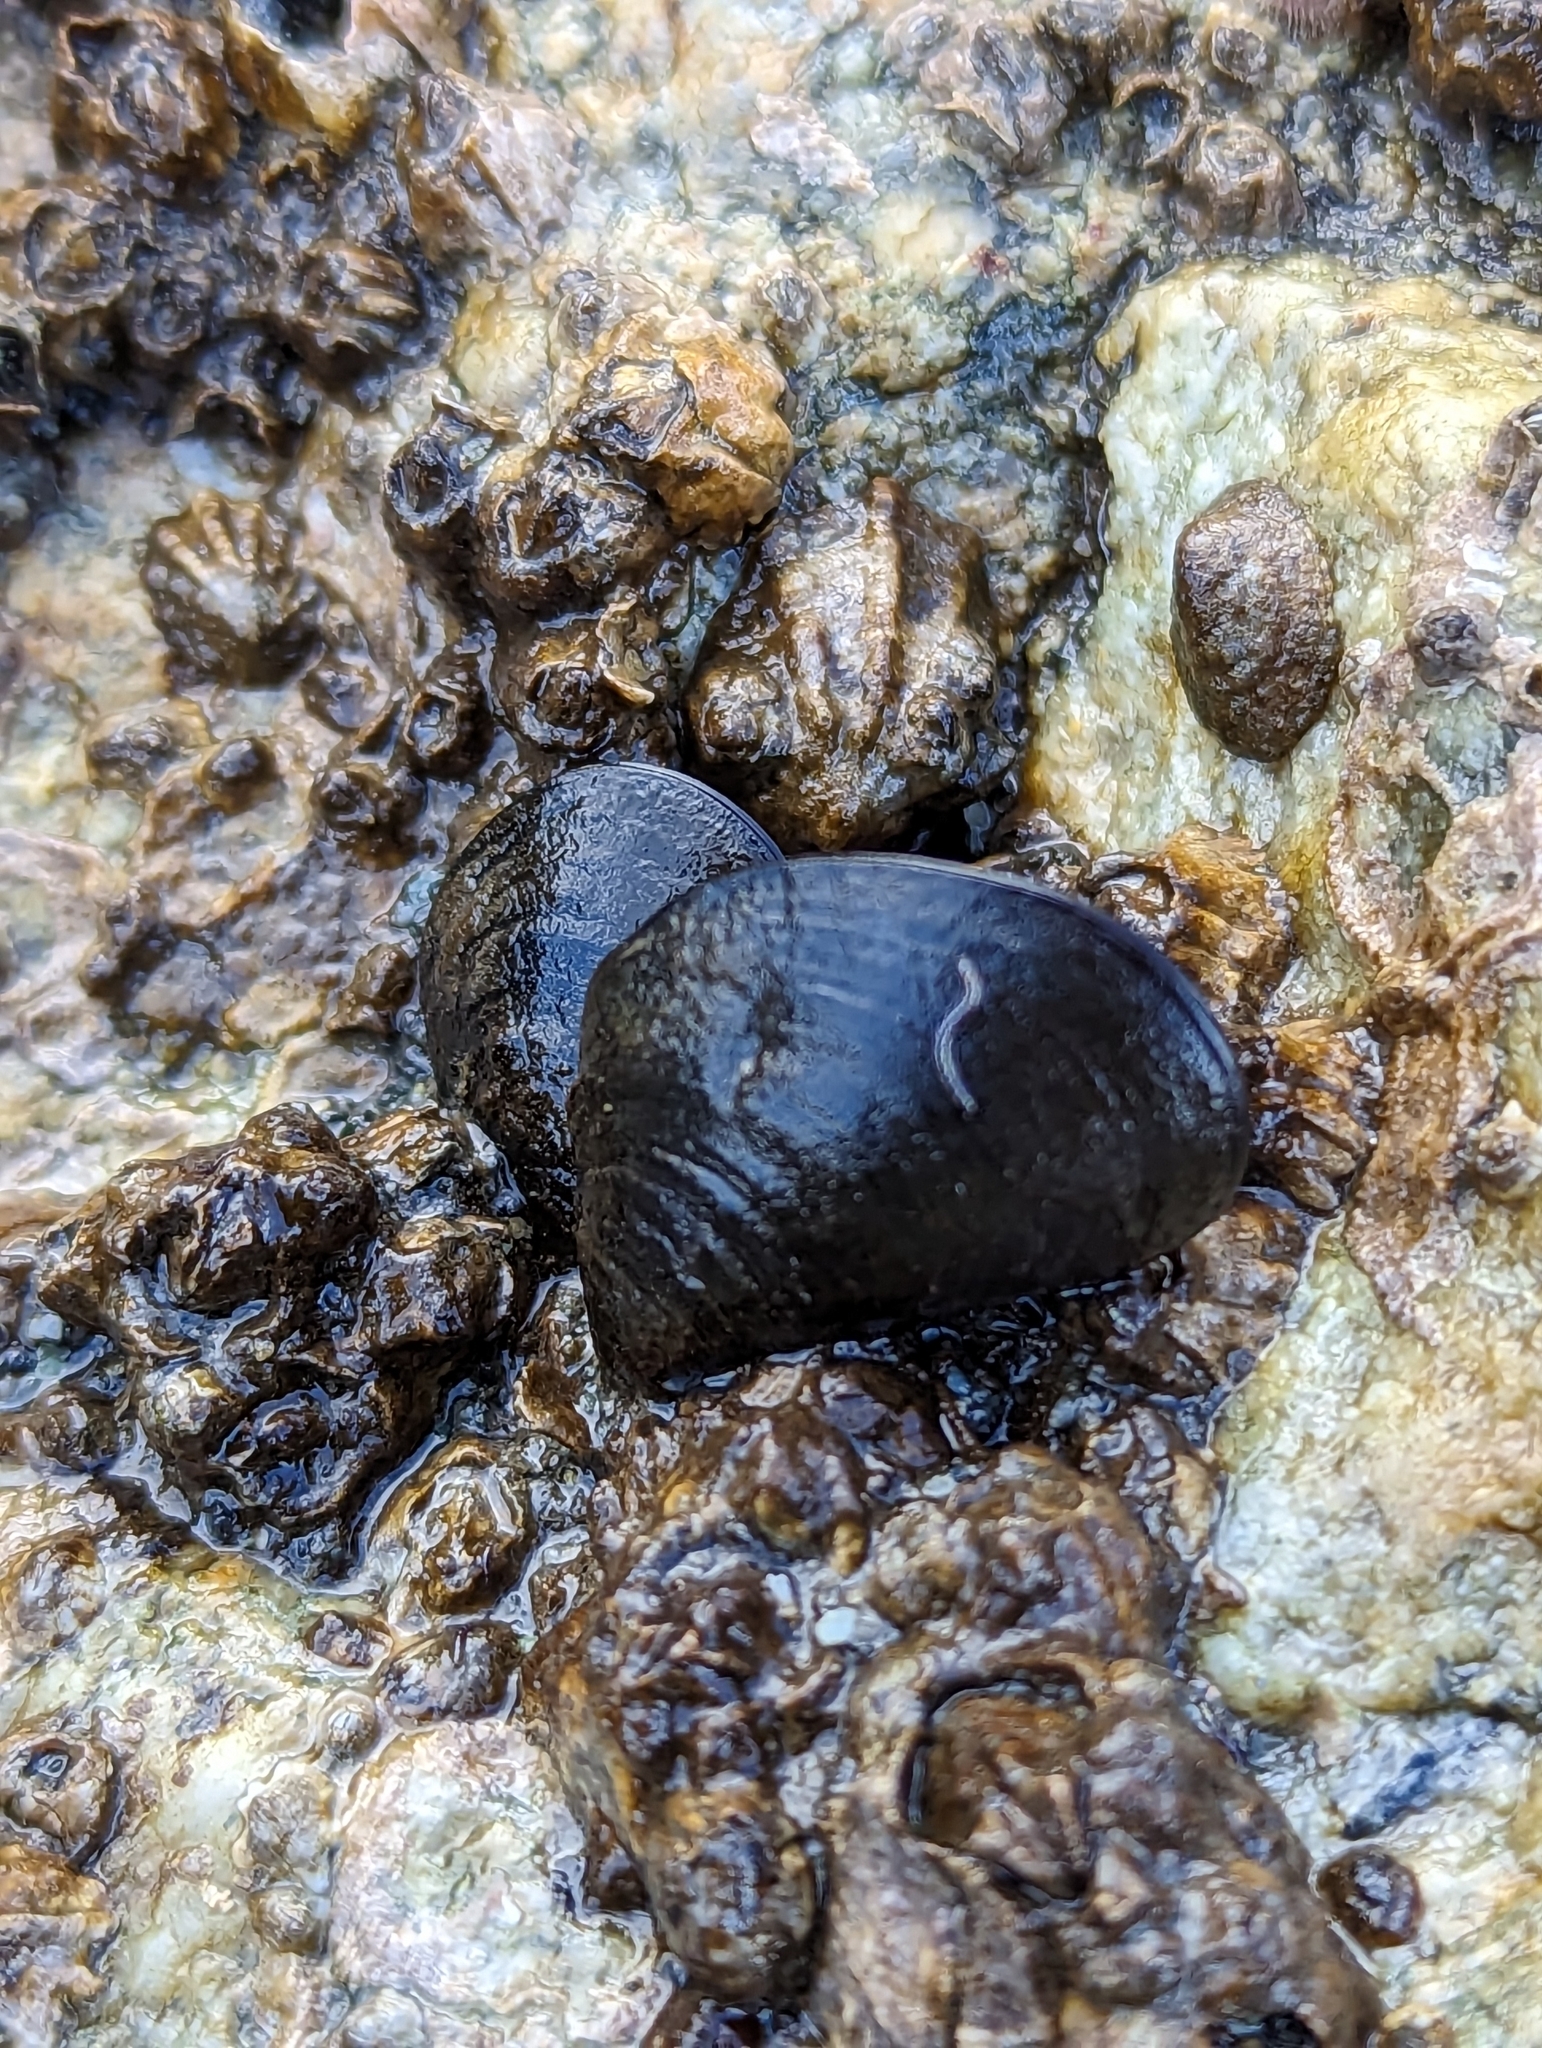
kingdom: Animalia
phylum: Mollusca
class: Bivalvia
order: Mytilida
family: Mytilidae
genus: Mytilus
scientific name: Mytilus
